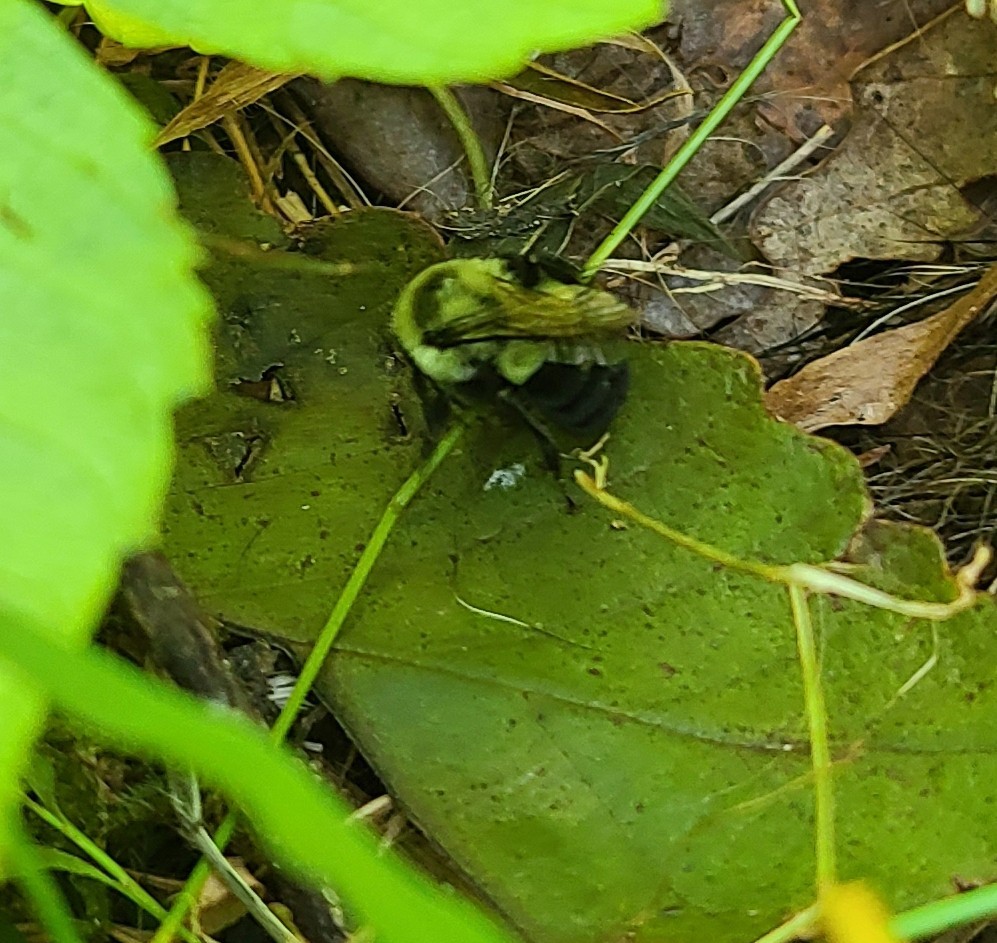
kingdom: Animalia
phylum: Arthropoda
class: Insecta
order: Hymenoptera
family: Apidae
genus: Bombus
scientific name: Bombus impatiens
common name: Common eastern bumble bee
